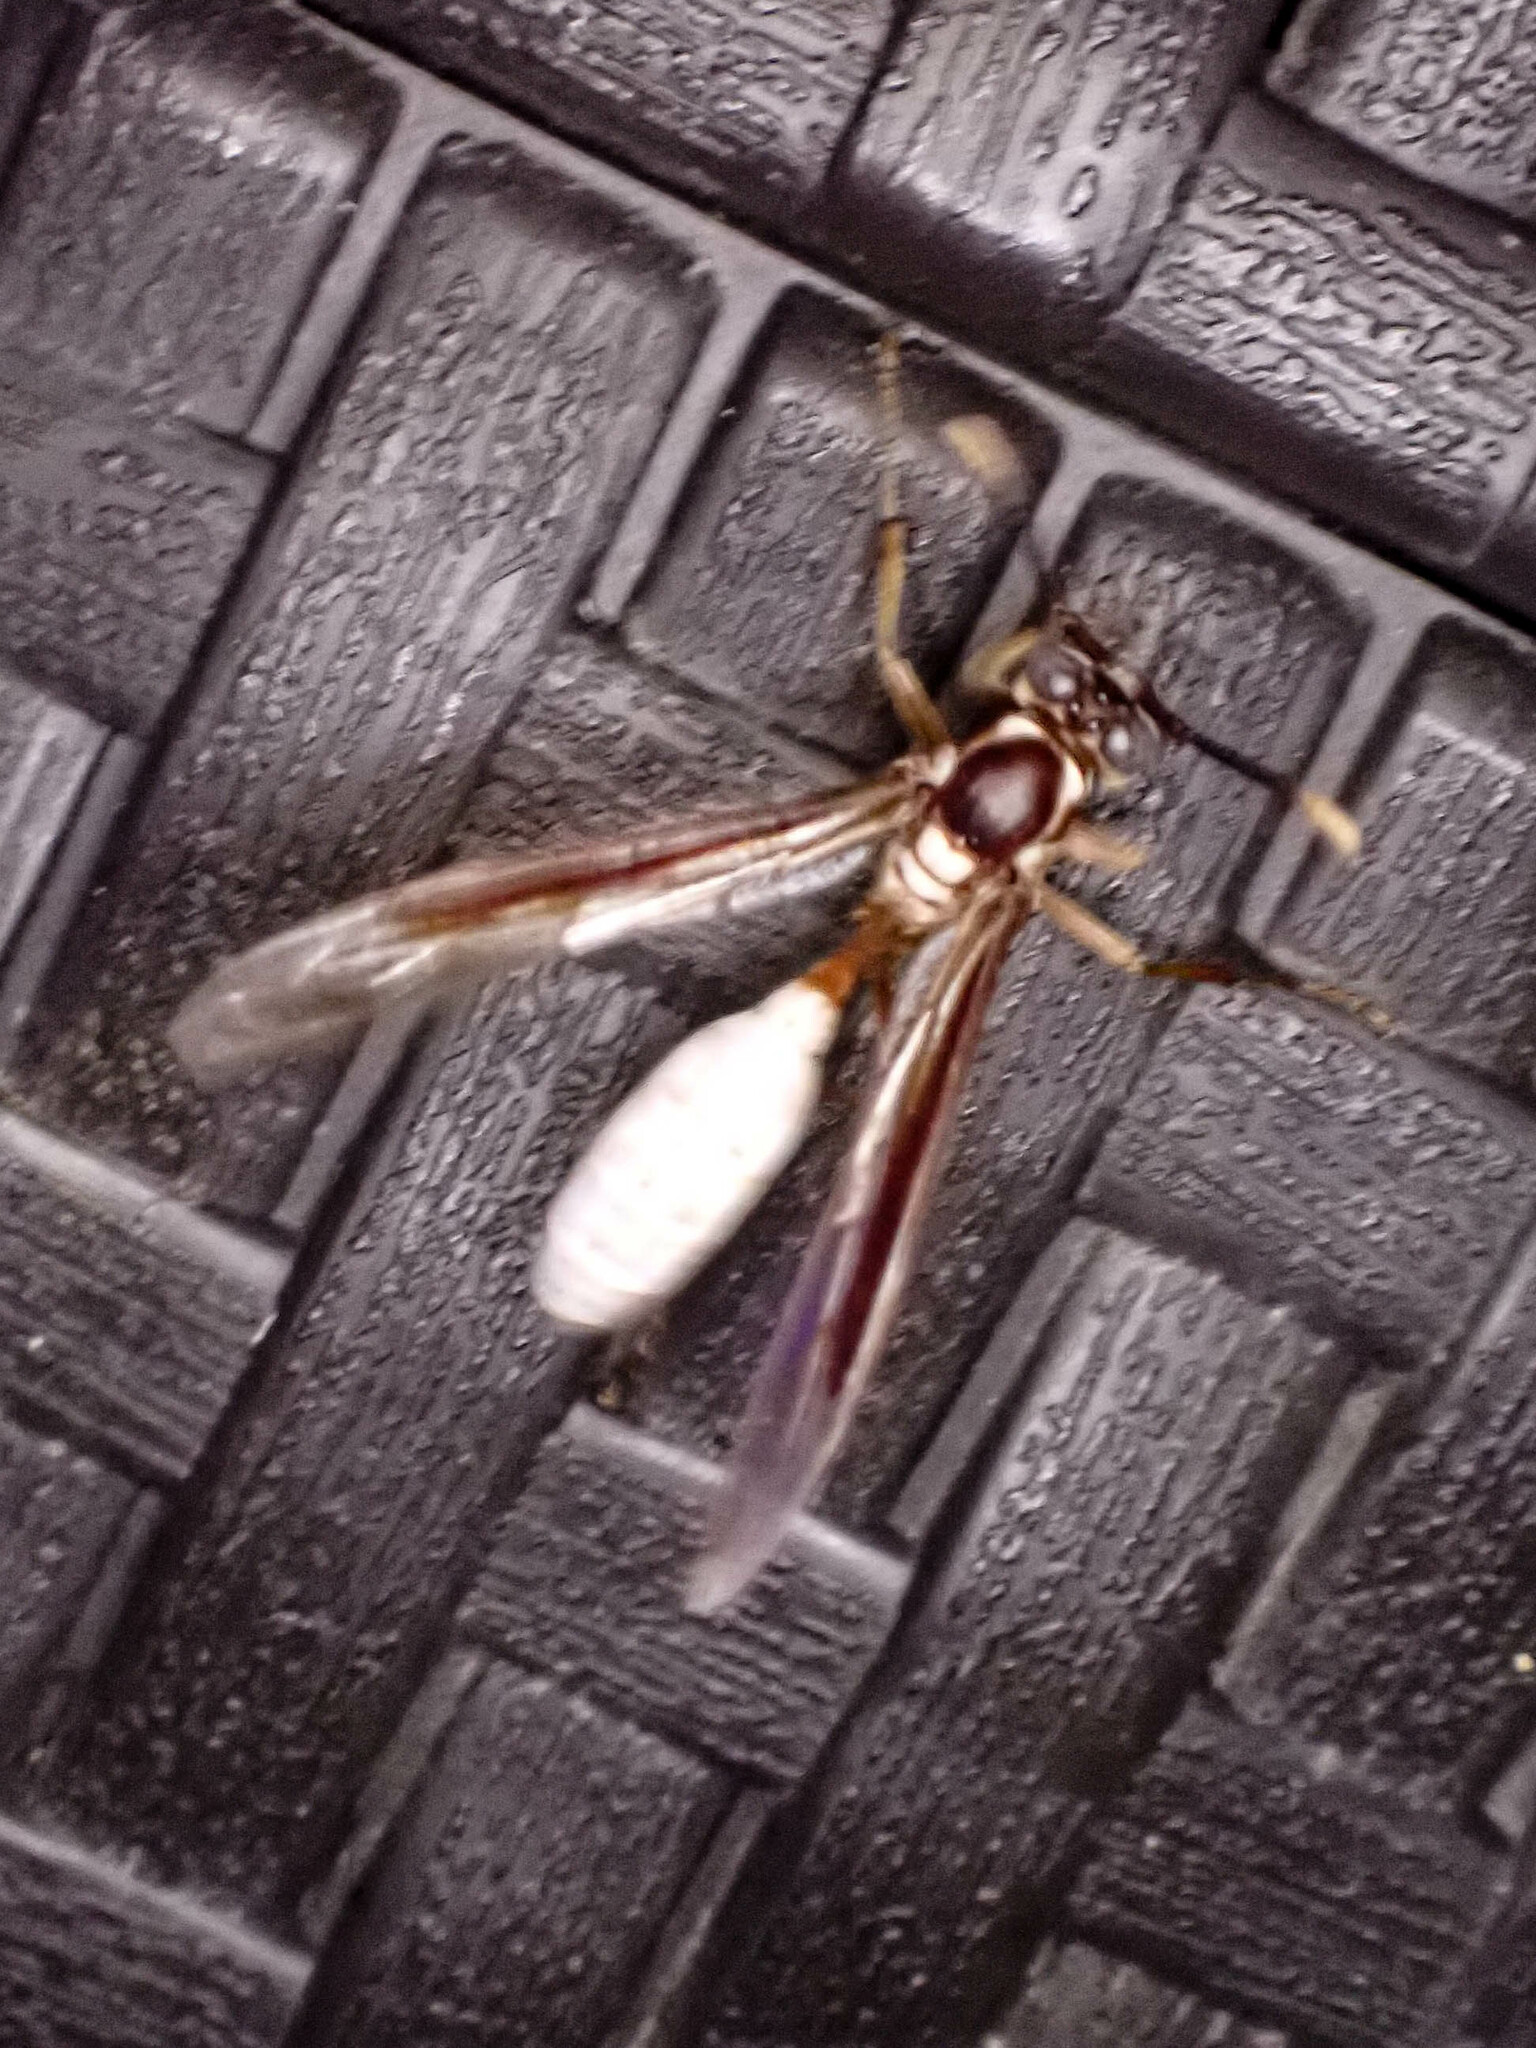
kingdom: Animalia
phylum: Arthropoda
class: Insecta
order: Hymenoptera
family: Vespidae
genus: Apoica
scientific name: Apoica pallens
